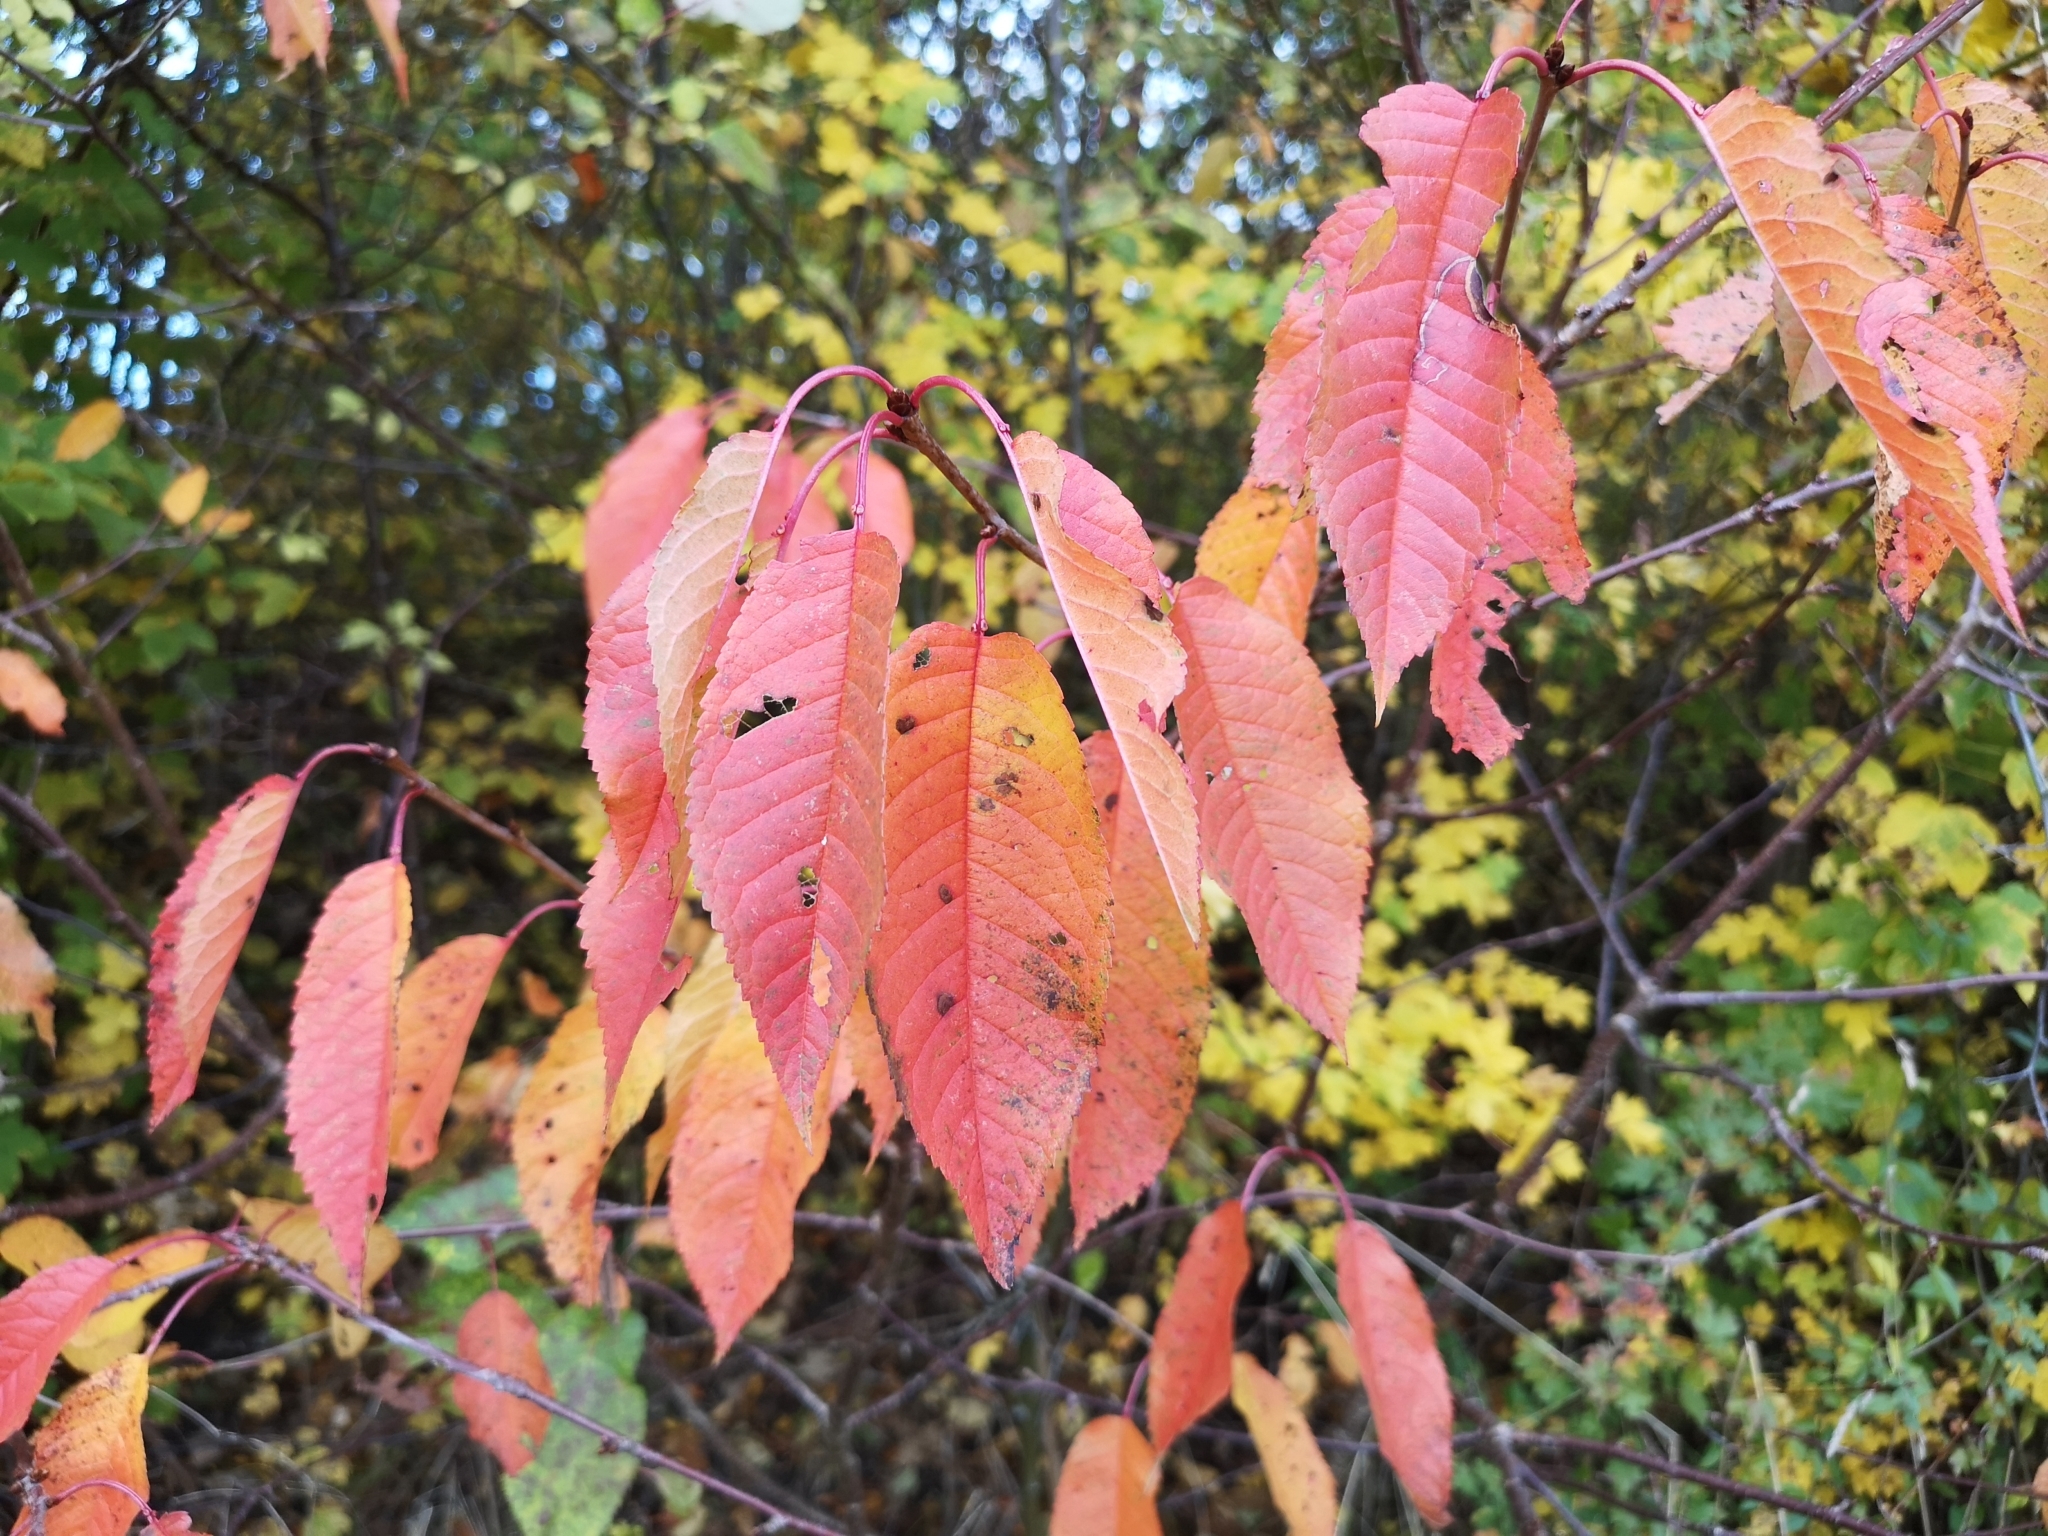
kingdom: Plantae
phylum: Tracheophyta
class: Magnoliopsida
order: Rosales
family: Rosaceae
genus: Prunus
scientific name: Prunus avium
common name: Sweet cherry
